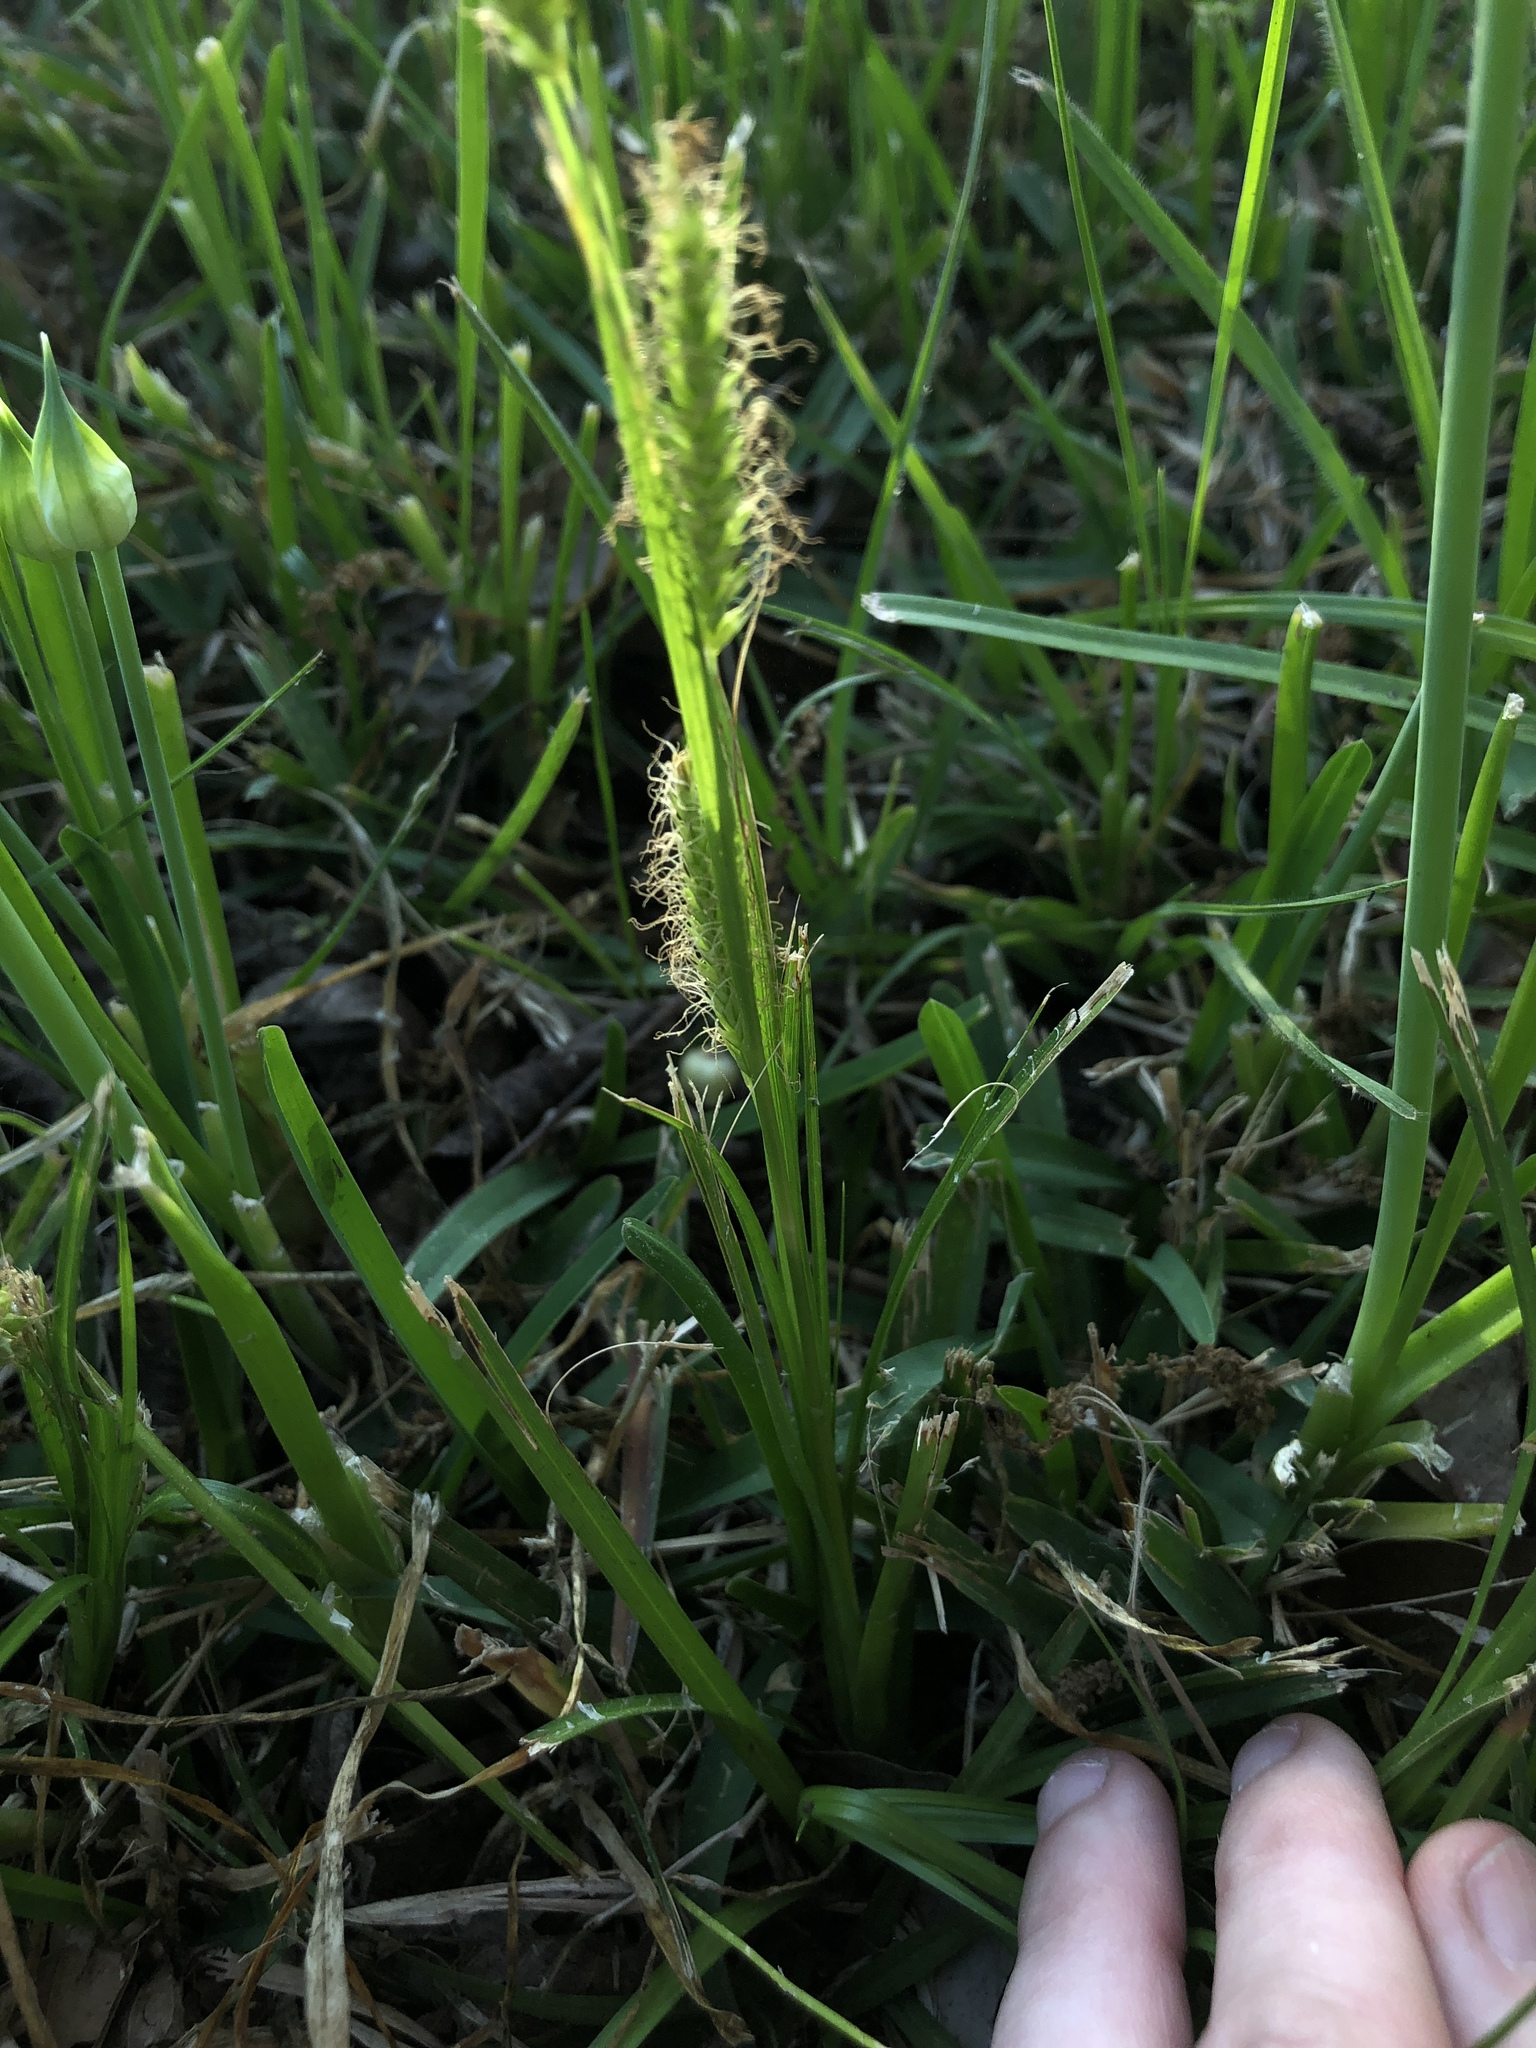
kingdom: Plantae
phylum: Tracheophyta
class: Liliopsida
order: Poales
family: Cyperaceae
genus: Carex
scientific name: Carex cherokeensis
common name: Cherokee sedge
